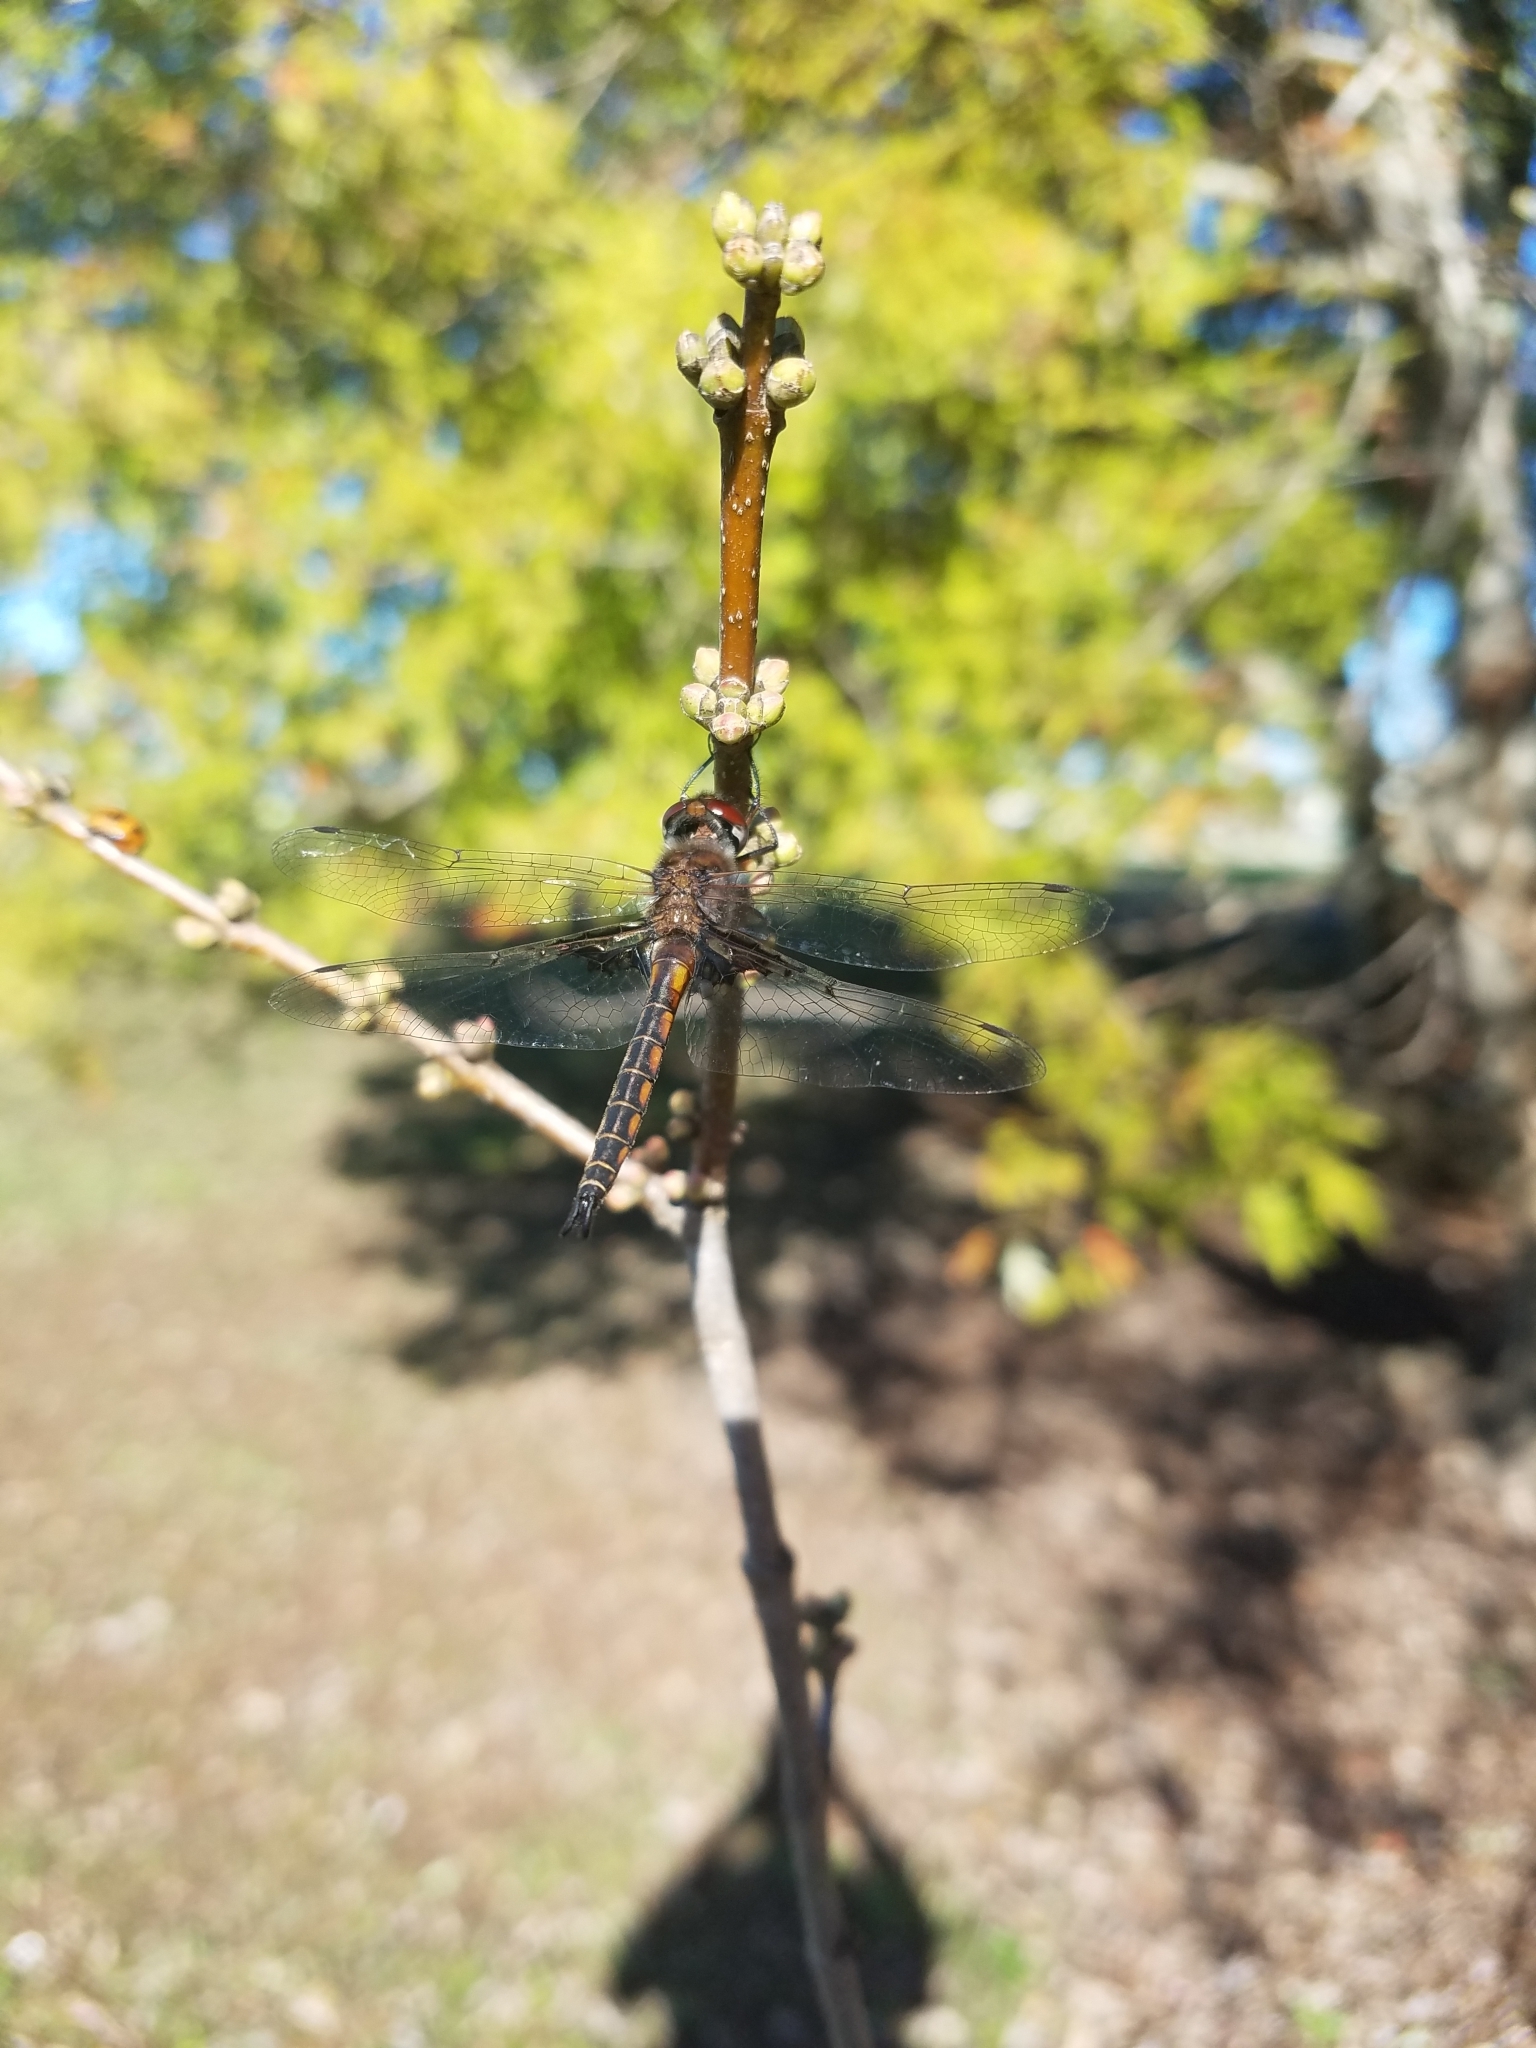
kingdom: Animalia
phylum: Arthropoda
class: Insecta
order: Odonata
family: Corduliidae
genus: Epitheca
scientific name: Epitheca cynosura
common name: Common baskettail
